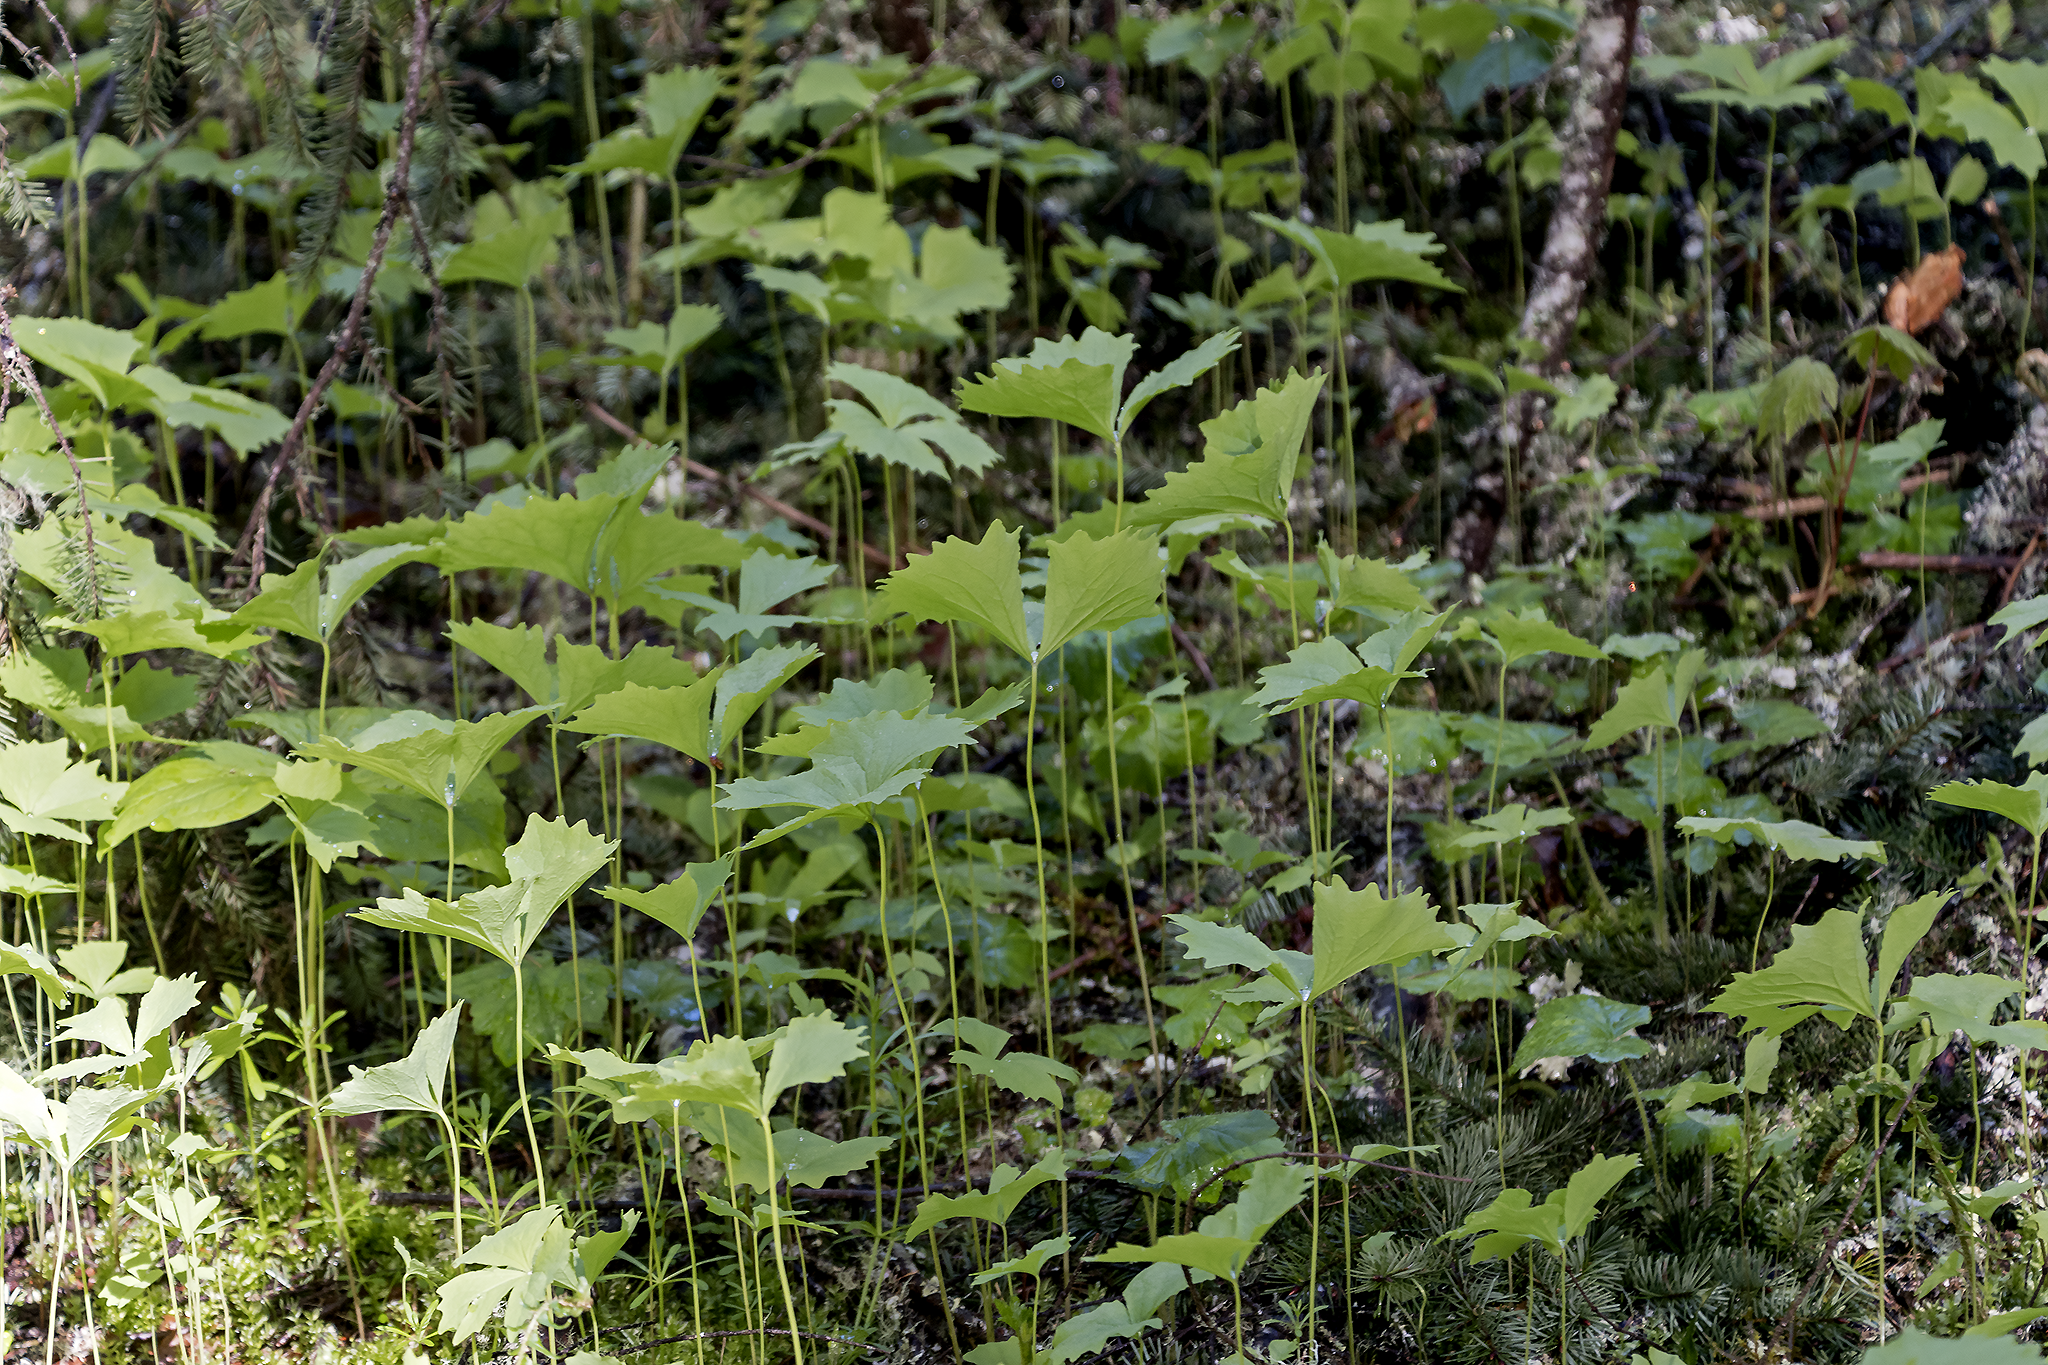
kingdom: Plantae
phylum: Tracheophyta
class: Magnoliopsida
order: Ranunculales
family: Berberidaceae
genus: Achlys
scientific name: Achlys triphylla
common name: Vanilla-leaf
